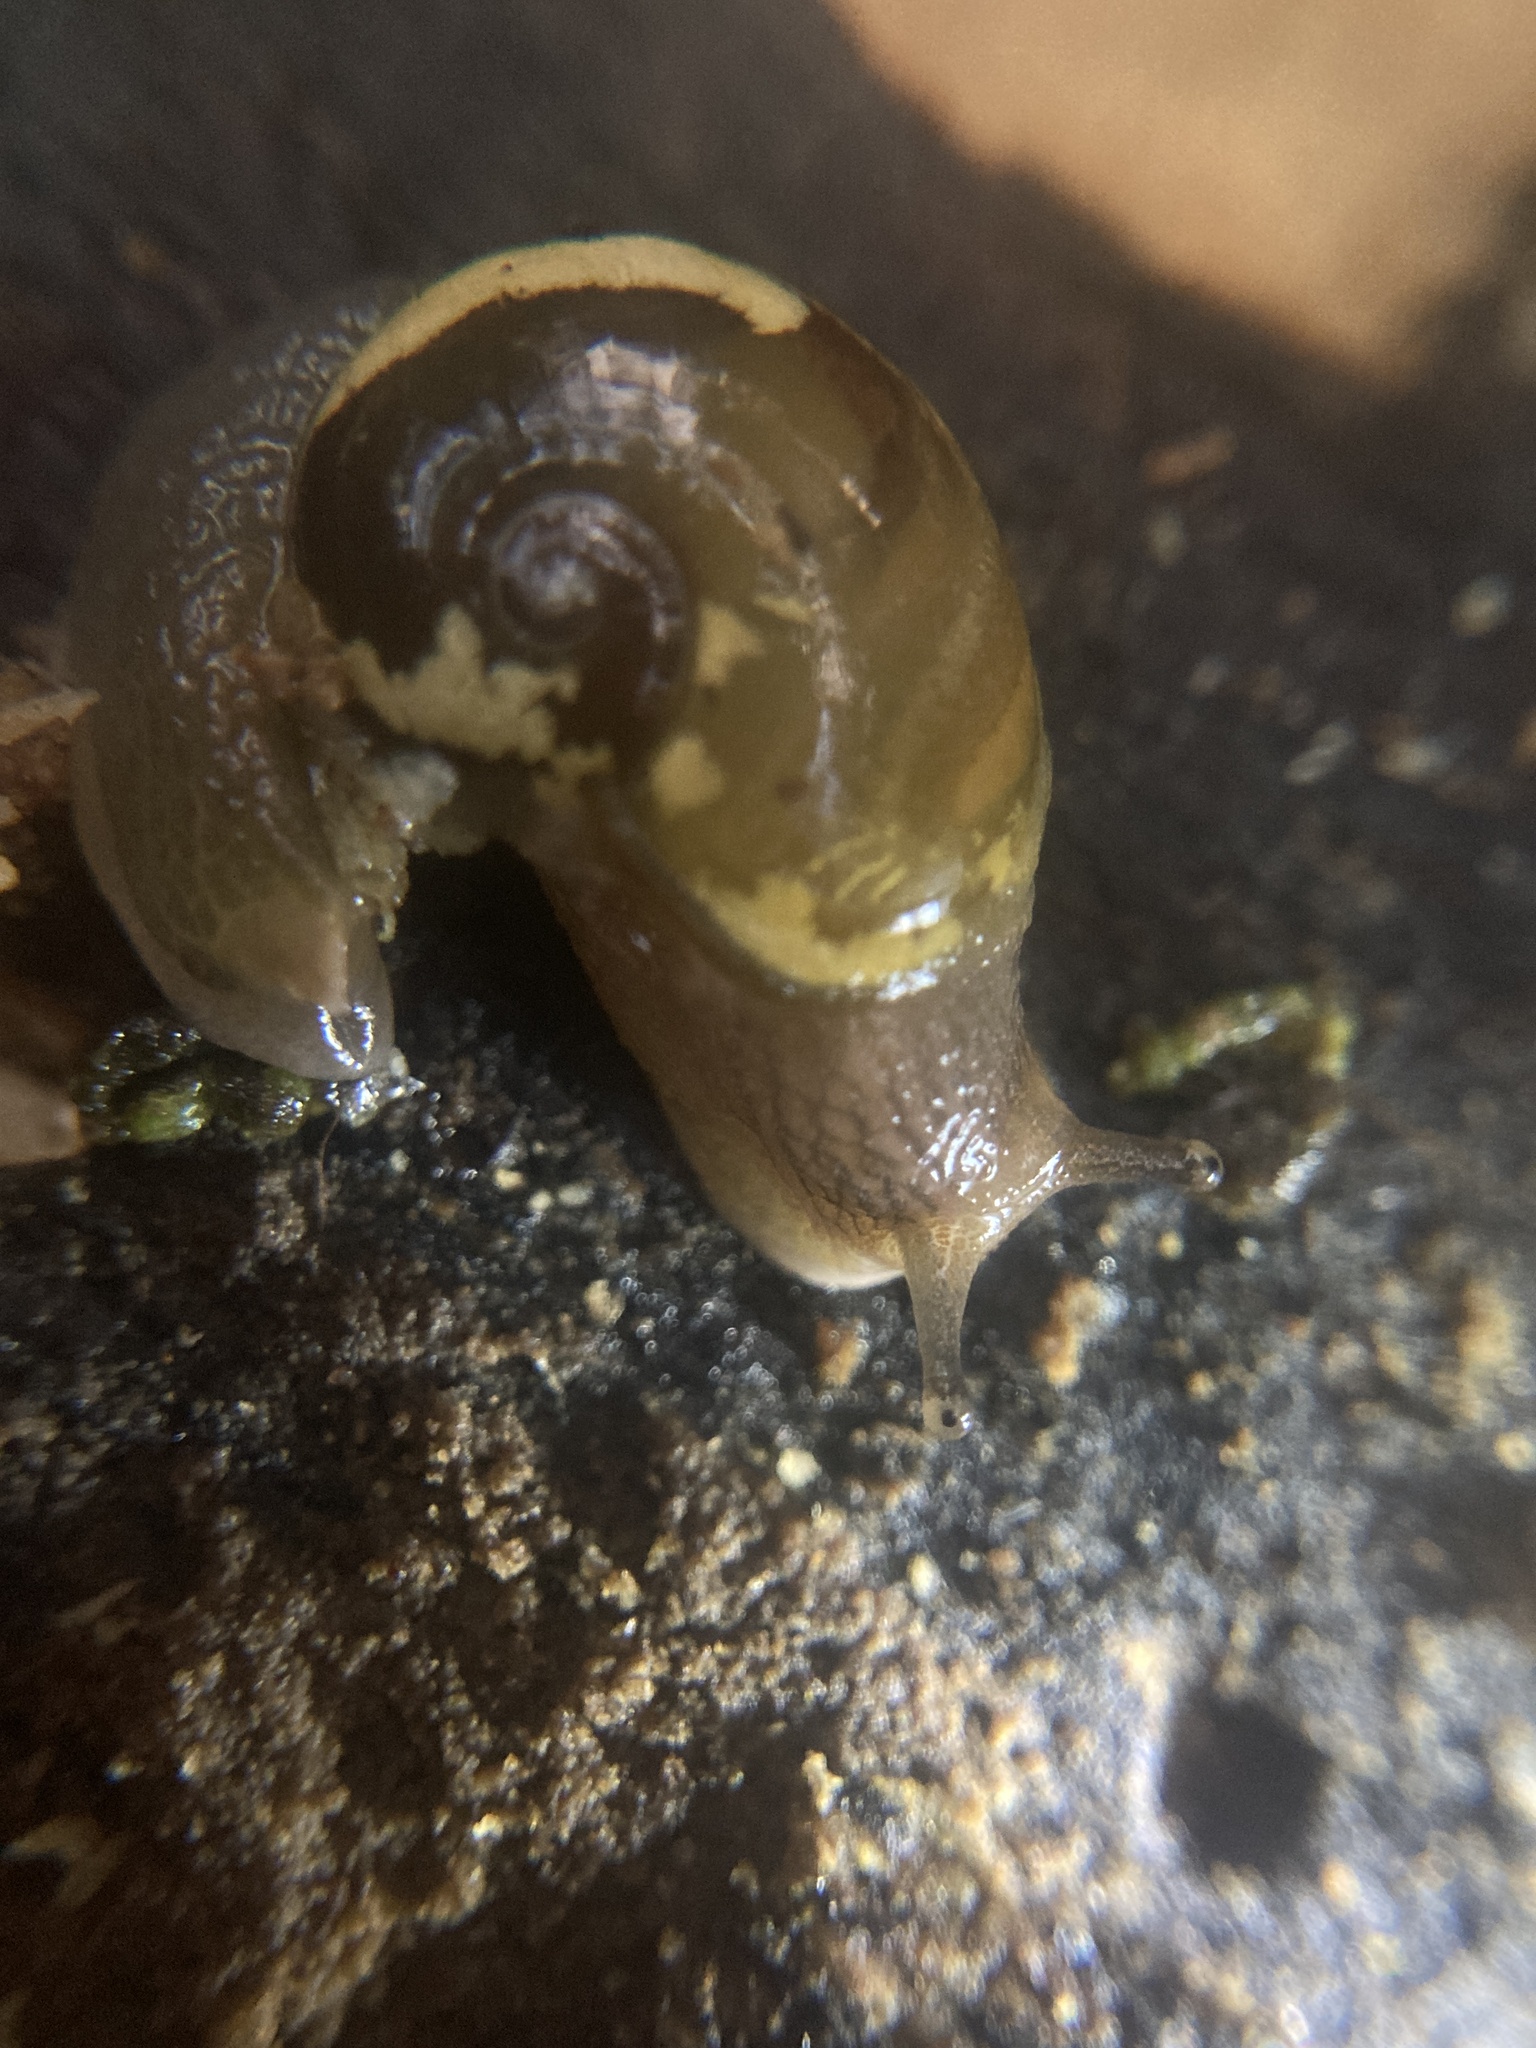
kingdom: Animalia
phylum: Mollusca
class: Gastropoda
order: Stylommatophora
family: Helicarionidae
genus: Helicarion
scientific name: Helicarion mastersi
